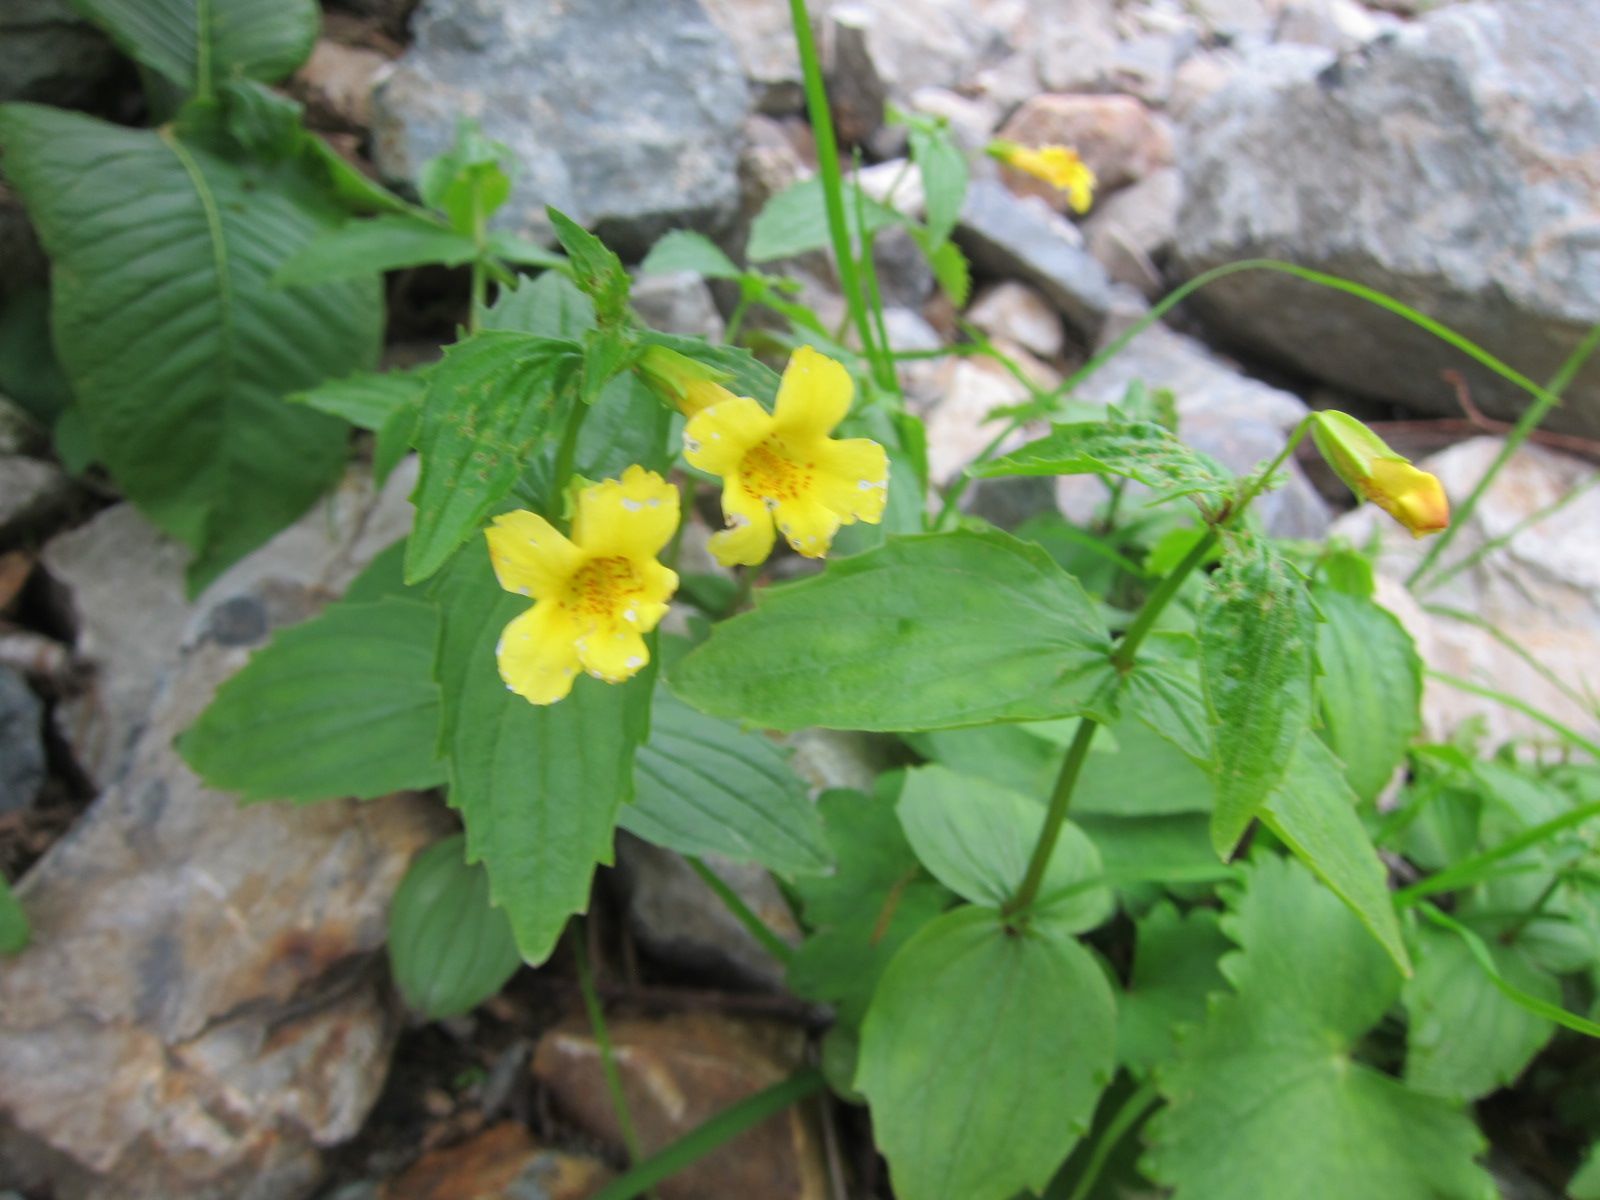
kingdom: Plantae
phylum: Tracheophyta
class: Magnoliopsida
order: Lamiales
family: Phrymaceae
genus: Erythranthe
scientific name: Erythranthe sessilifolia
